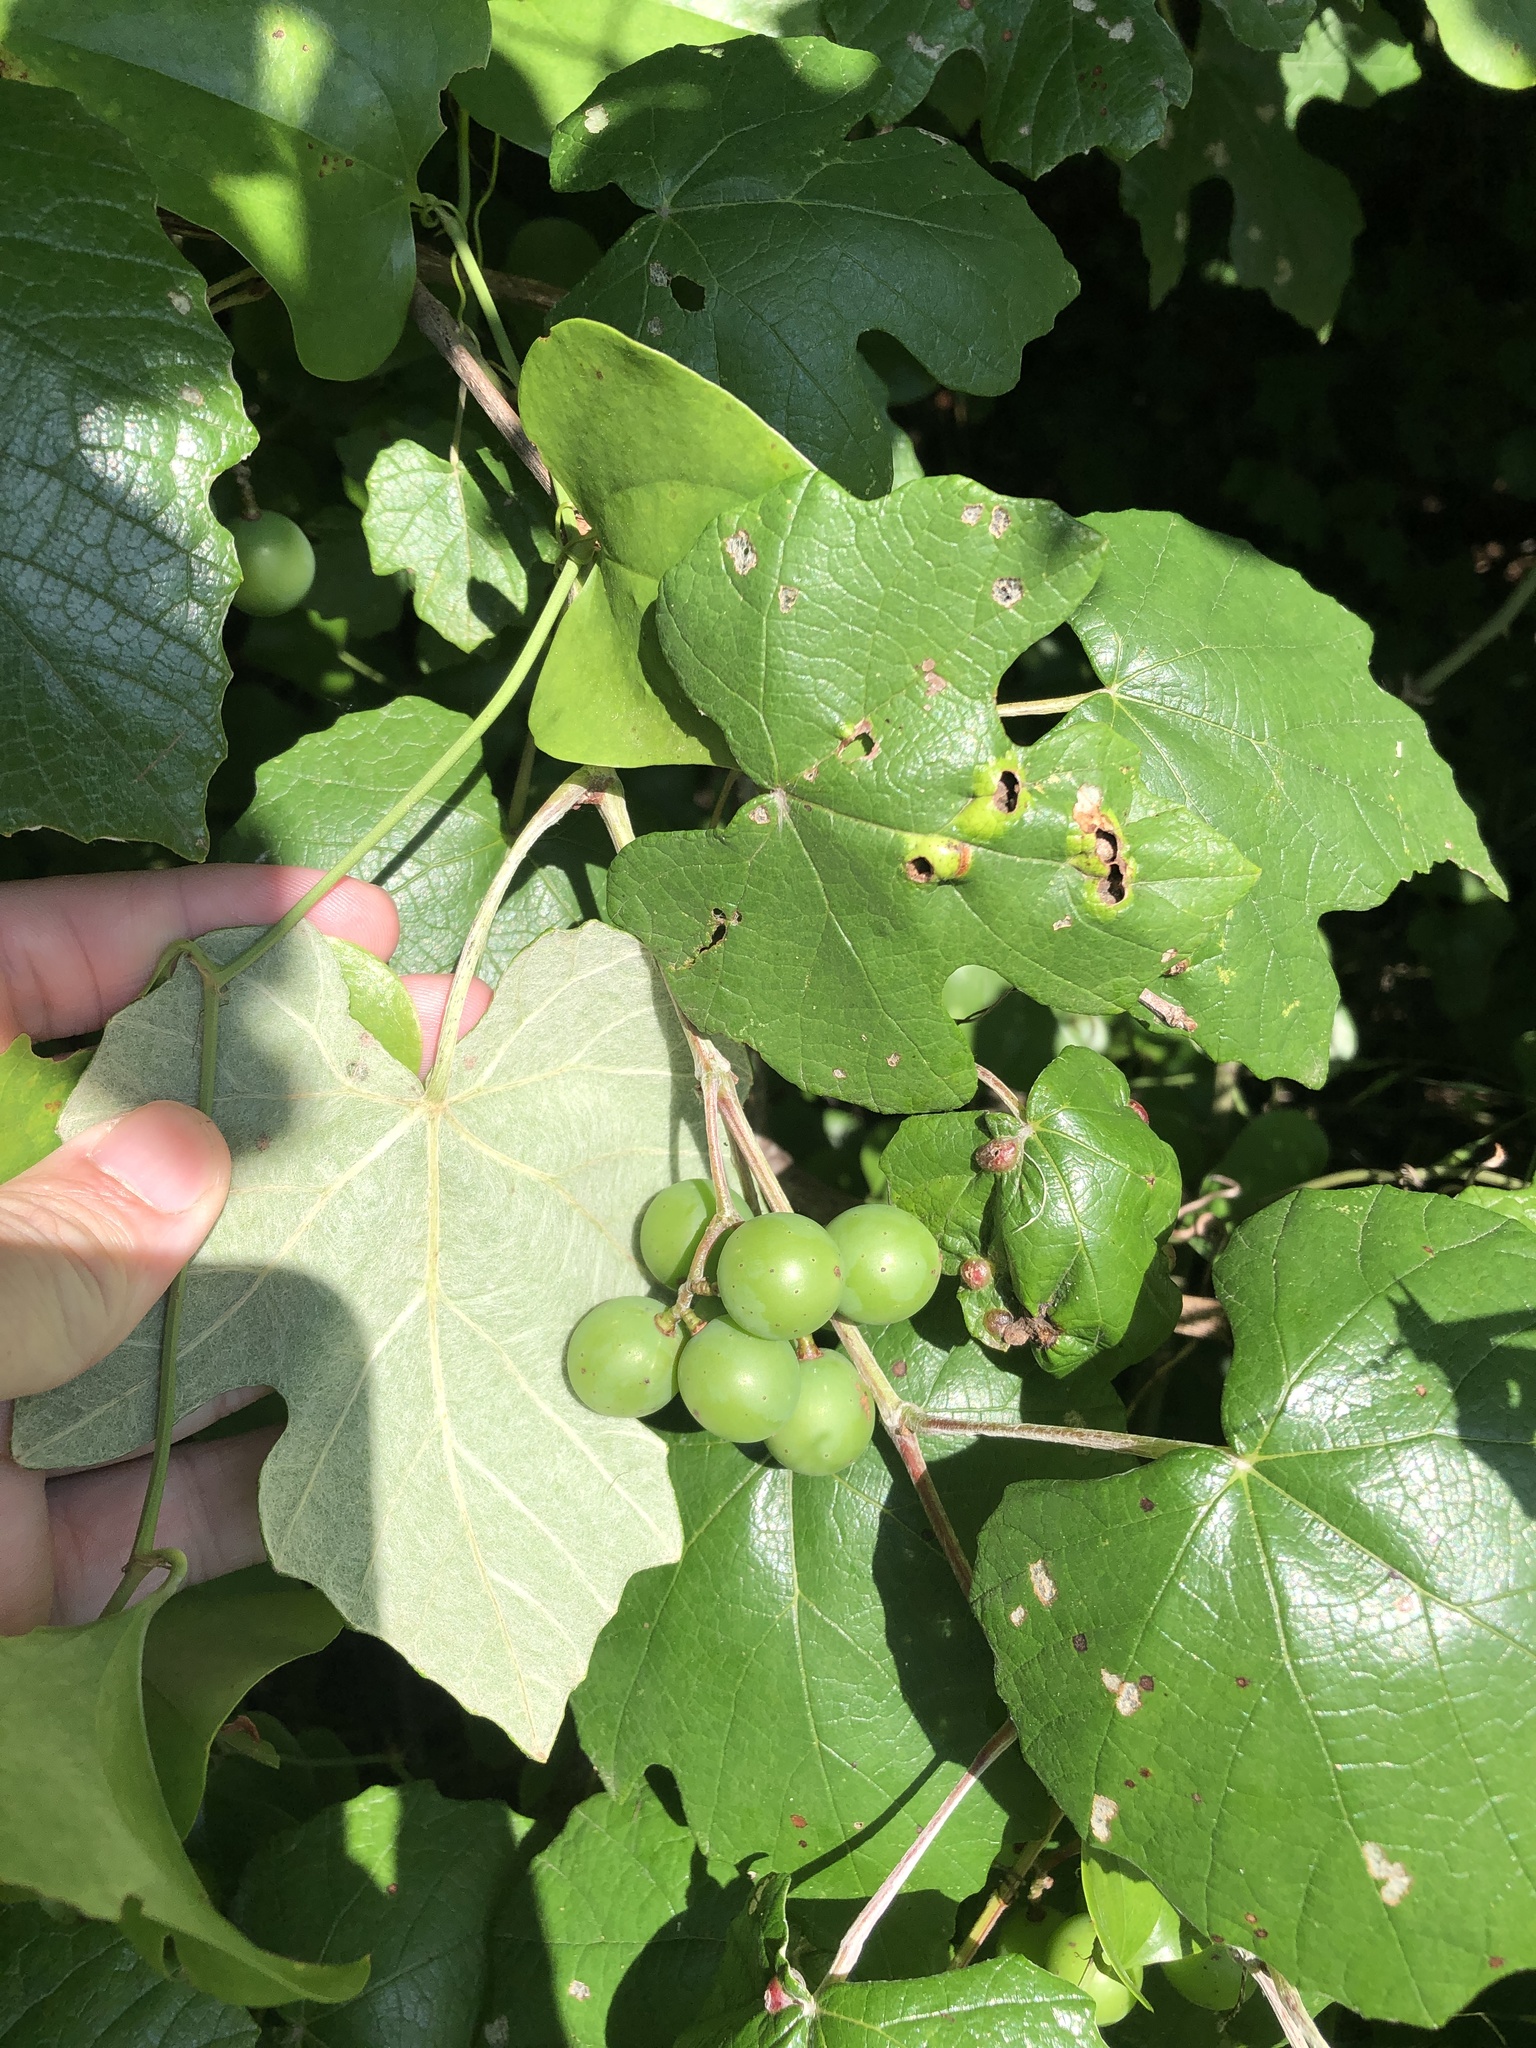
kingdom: Plantae
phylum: Tracheophyta
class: Magnoliopsida
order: Vitales
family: Vitaceae
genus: Vitis
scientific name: Vitis mustangensis
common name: Mustang grape
